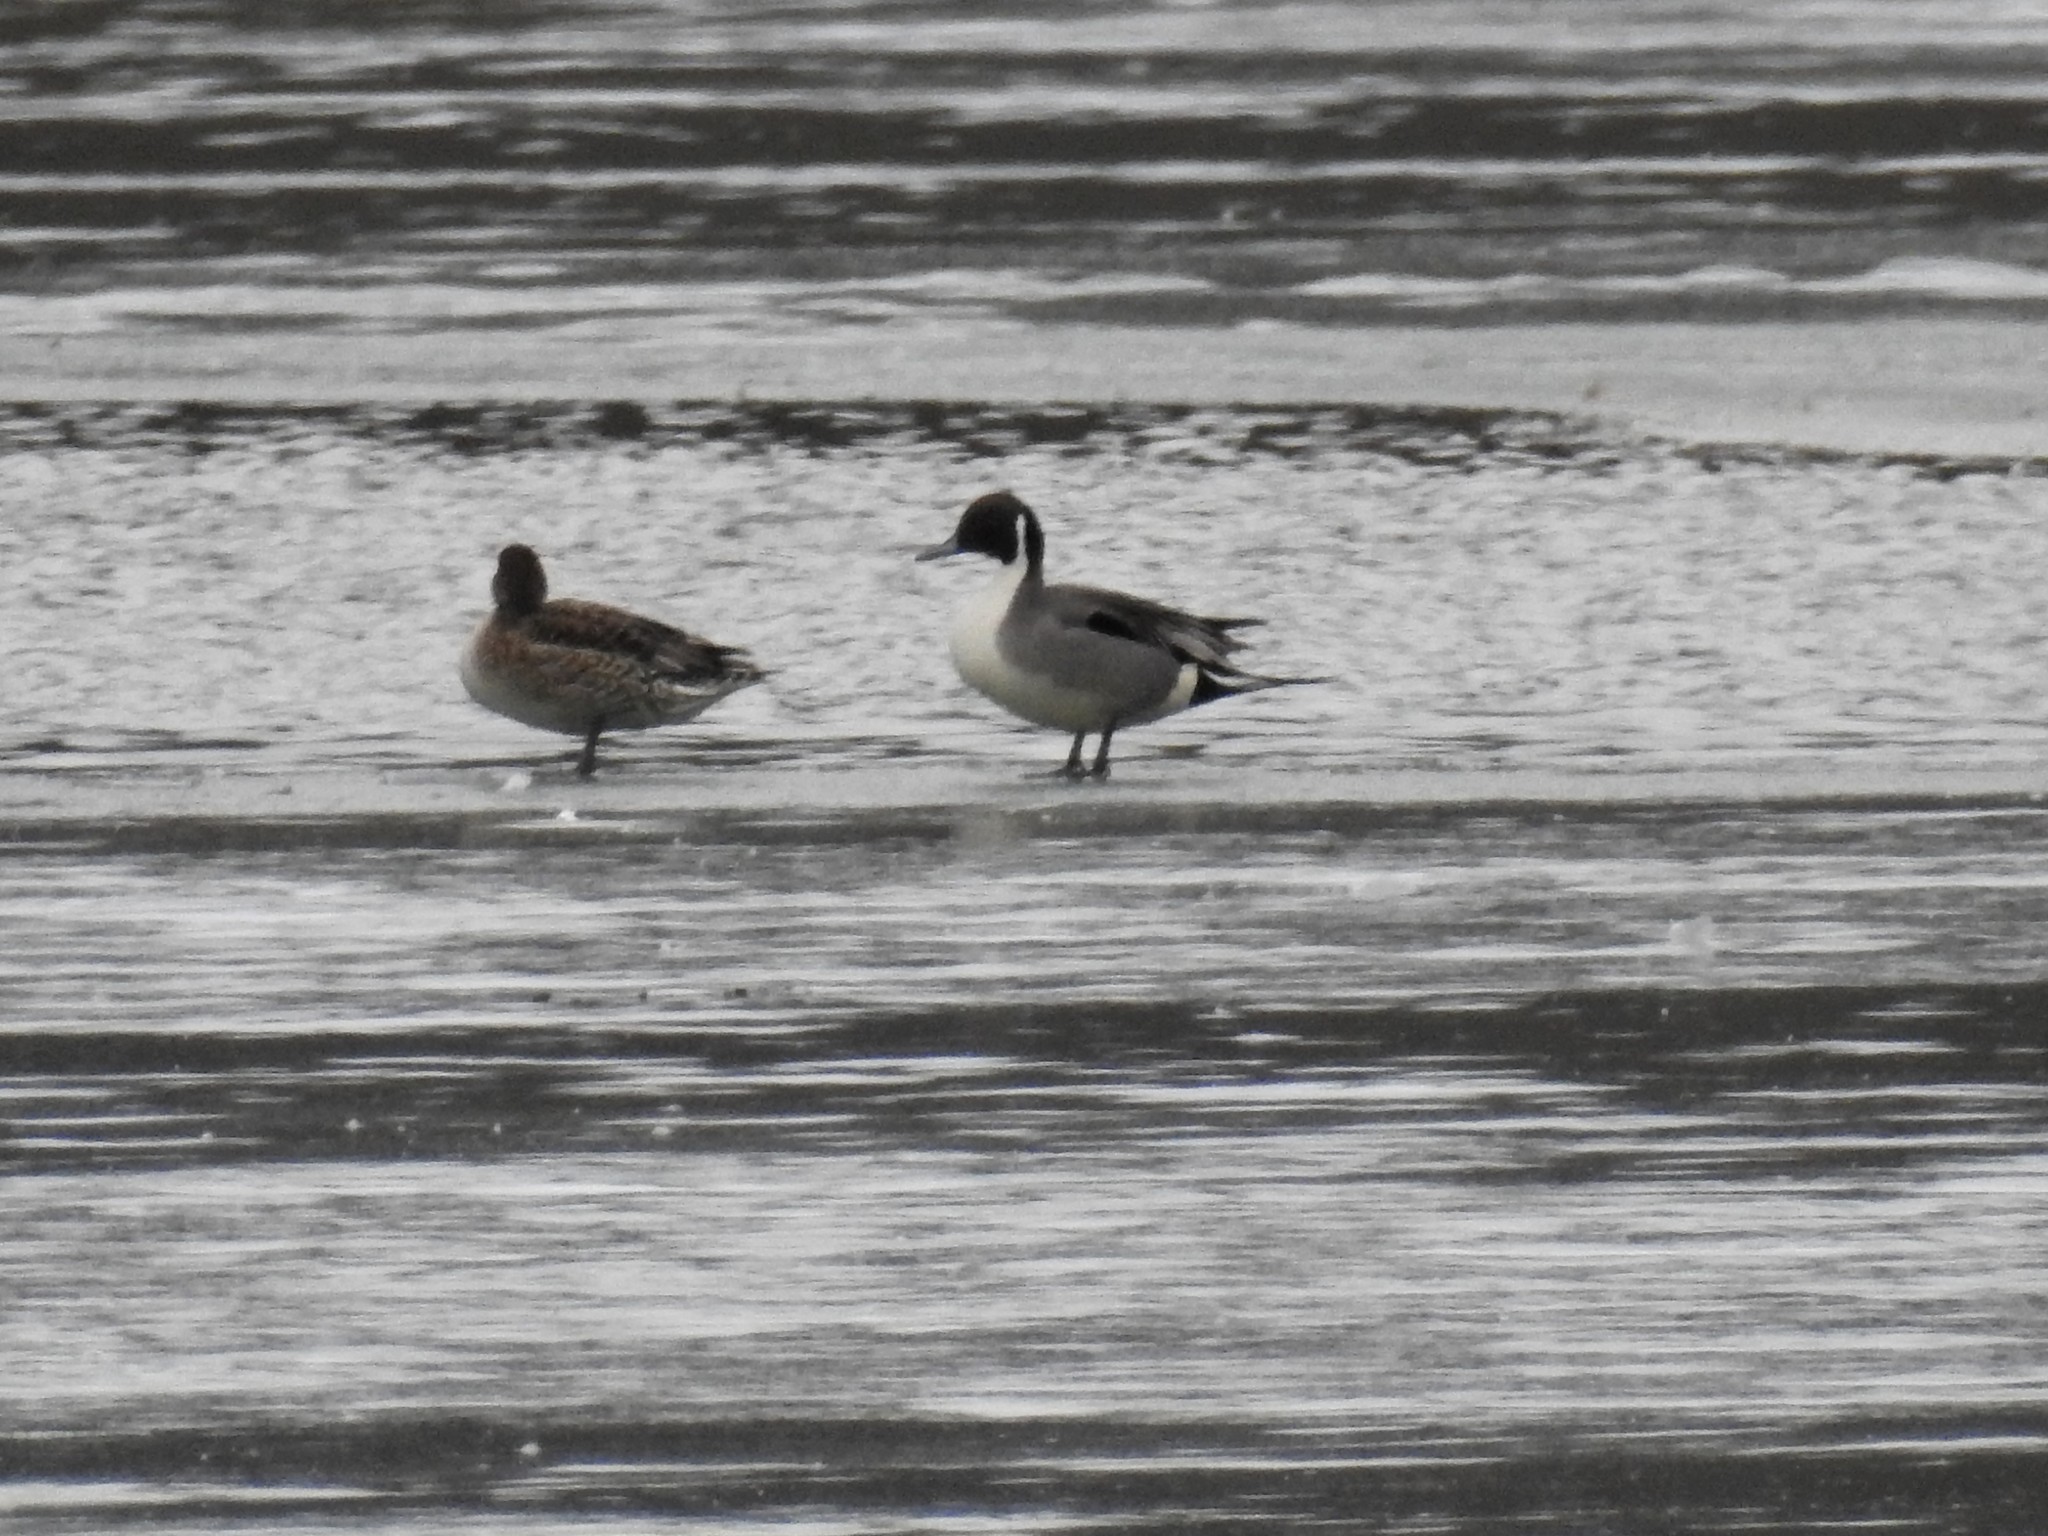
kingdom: Animalia
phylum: Chordata
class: Aves
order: Anseriformes
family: Anatidae
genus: Anas
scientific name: Anas acuta
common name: Northern pintail
